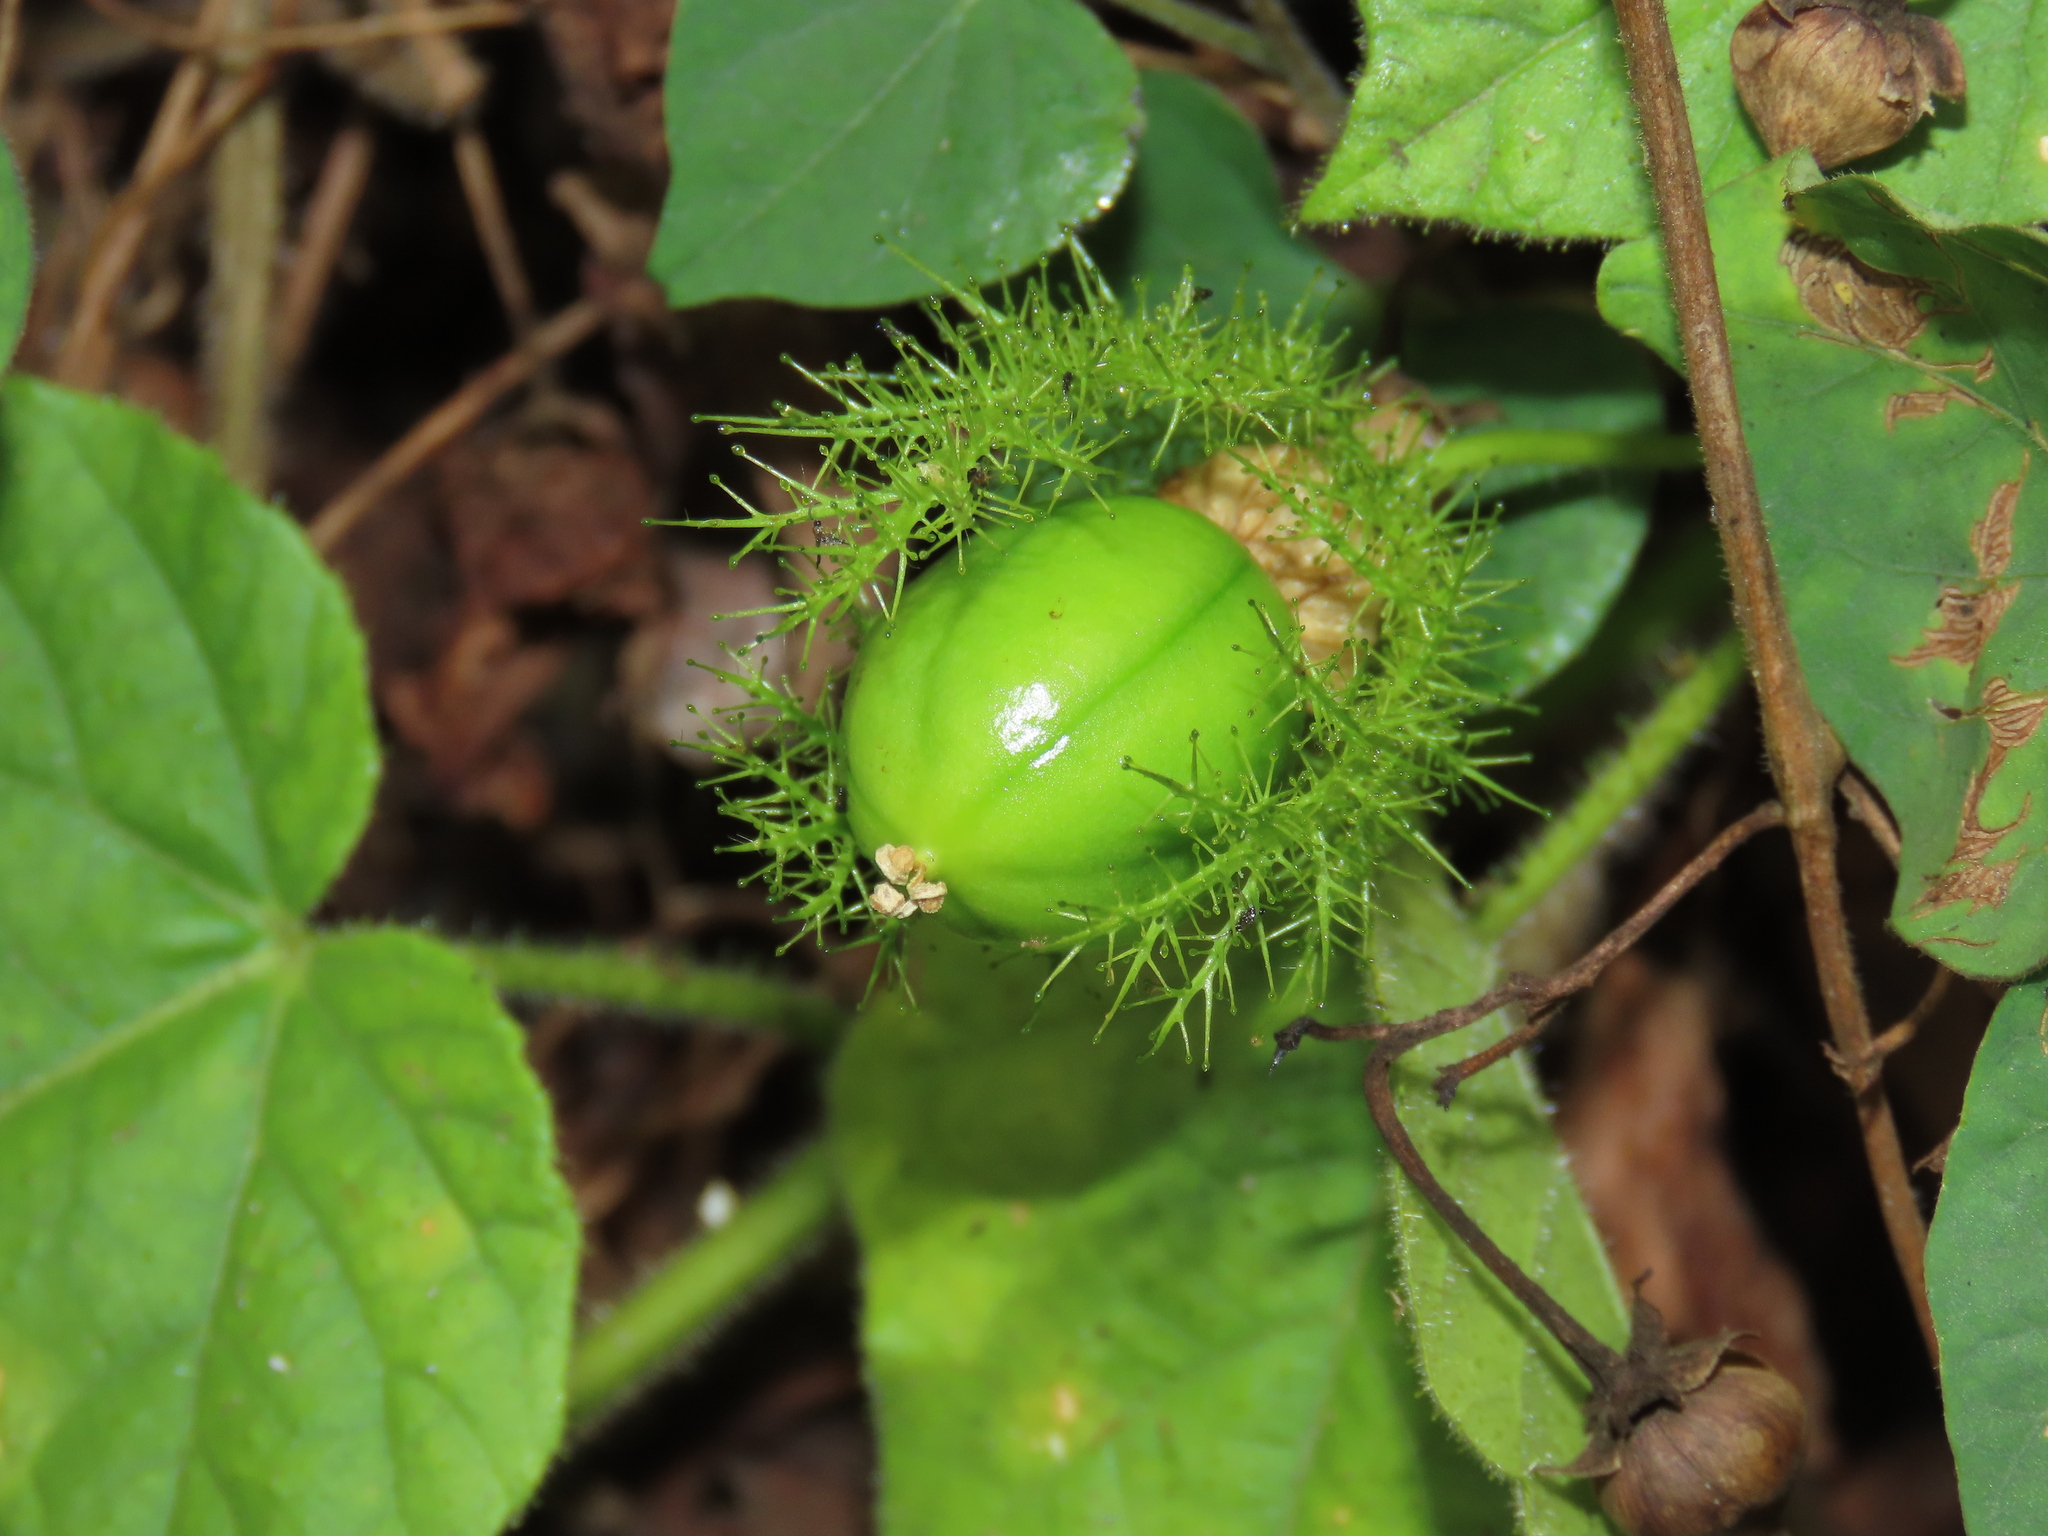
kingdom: Plantae
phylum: Tracheophyta
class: Magnoliopsida
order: Malpighiales
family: Passifloraceae
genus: Passiflora
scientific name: Passiflora vesicaria
